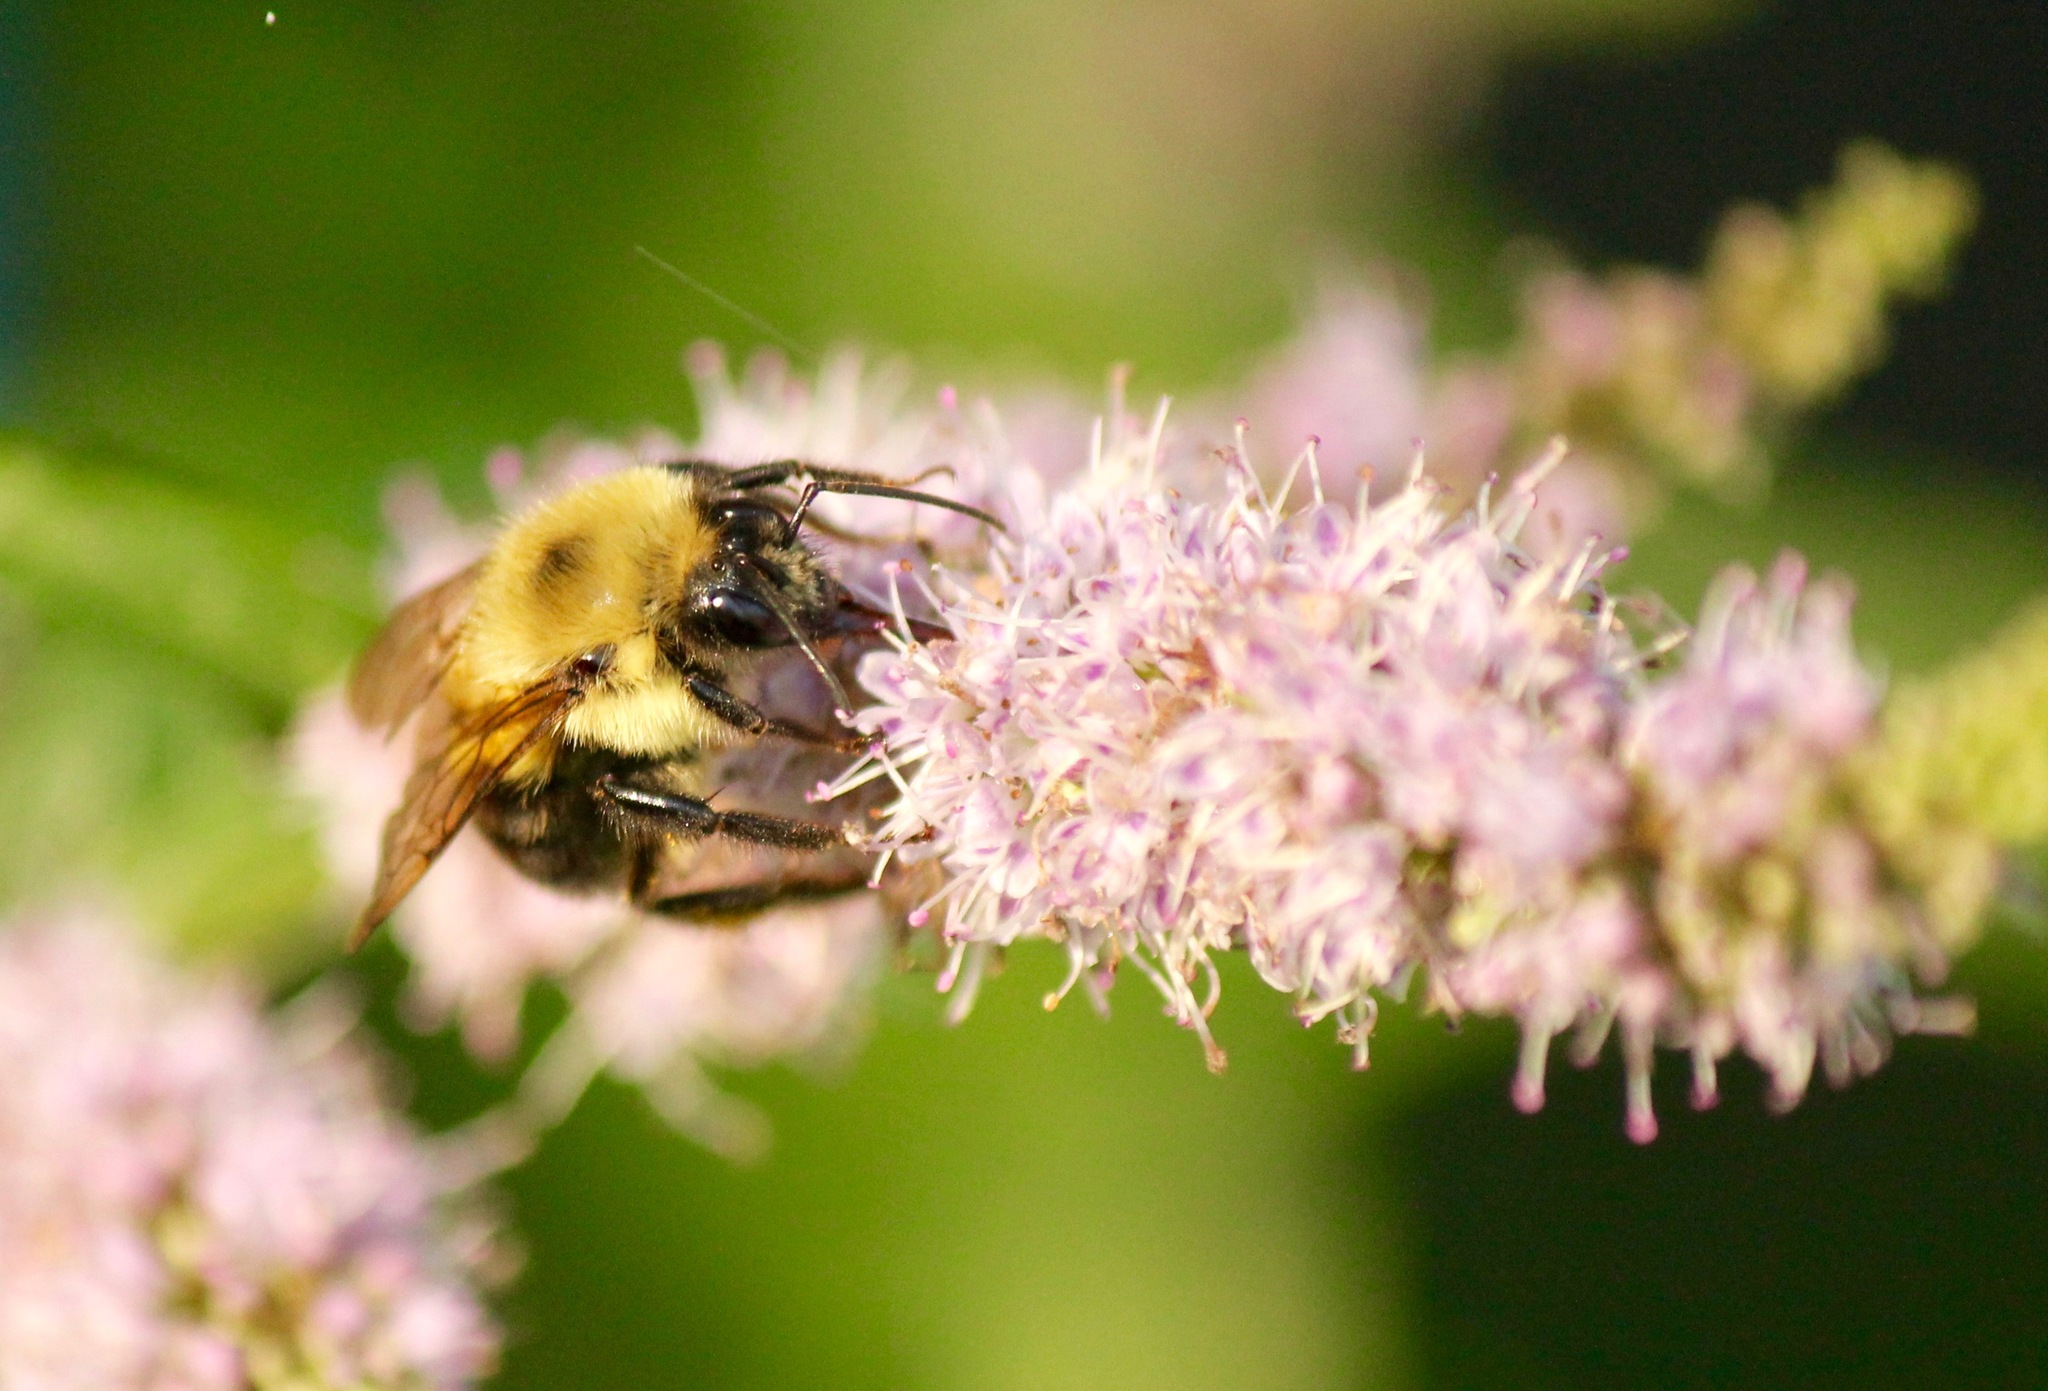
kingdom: Animalia
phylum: Arthropoda
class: Insecta
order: Hymenoptera
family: Apidae
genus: Bombus
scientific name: Bombus bimaculatus
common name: Two-spotted bumble bee
